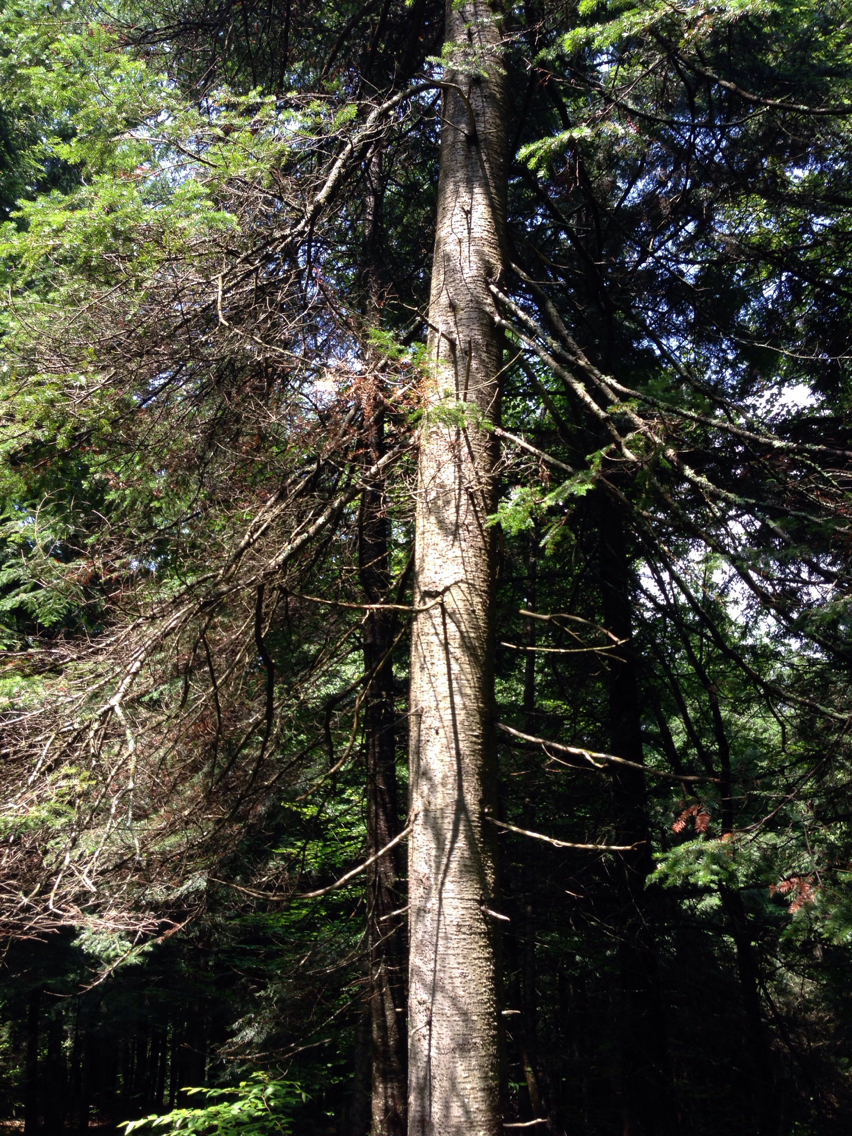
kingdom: Plantae
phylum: Tracheophyta
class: Pinopsida
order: Pinales
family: Pinaceae
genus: Abies
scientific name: Abies balsamea
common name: Balsam fir
